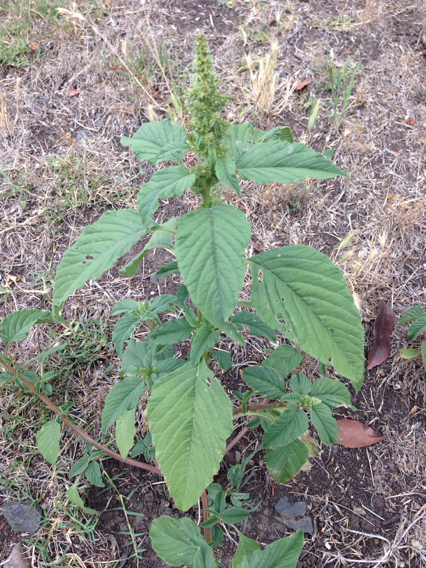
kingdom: Plantae
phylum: Tracheophyta
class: Magnoliopsida
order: Caryophyllales
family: Amaranthaceae
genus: Amaranthus
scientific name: Amaranthus viridis
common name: Slender amaranth
